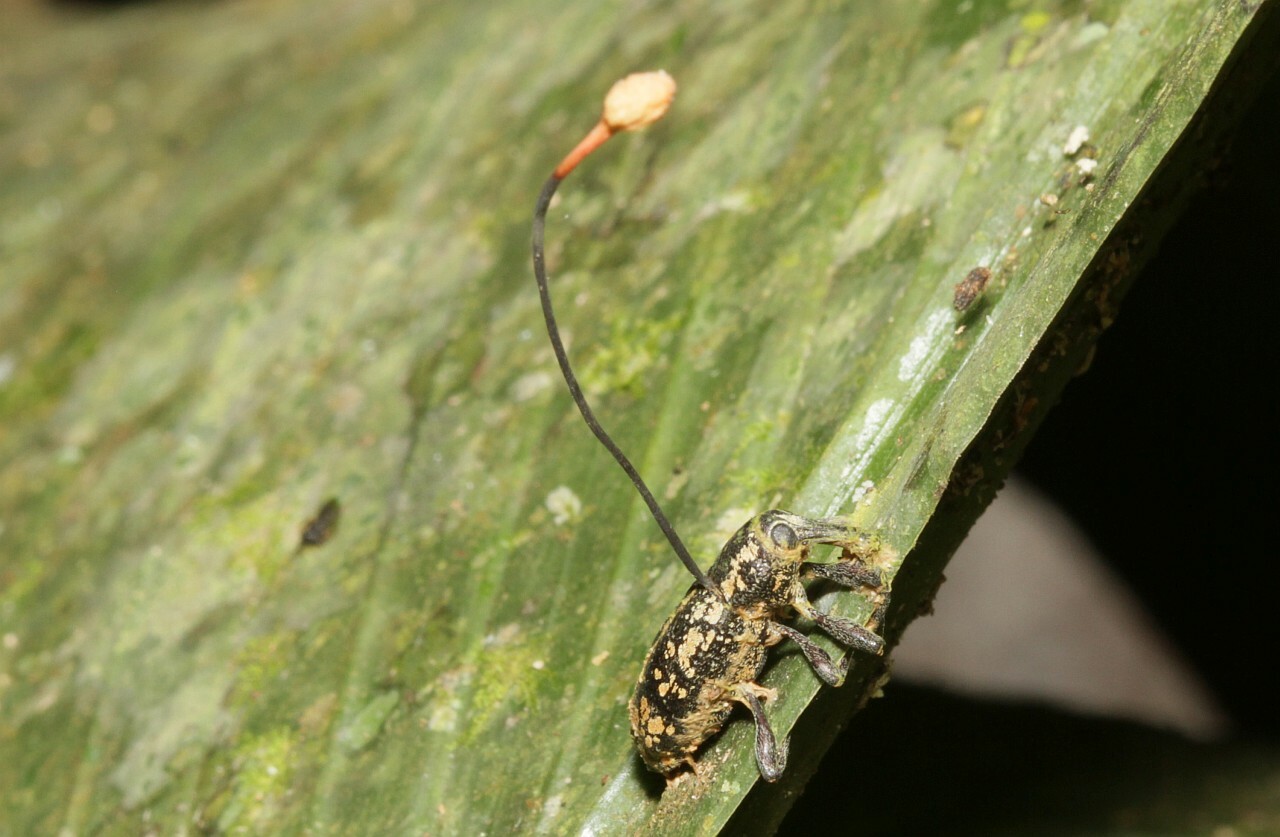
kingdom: Fungi
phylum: Ascomycota
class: Sordariomycetes
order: Hypocreales
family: Ophiocordycipitaceae
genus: Ophiocordyceps
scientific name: Ophiocordyceps curculionum
